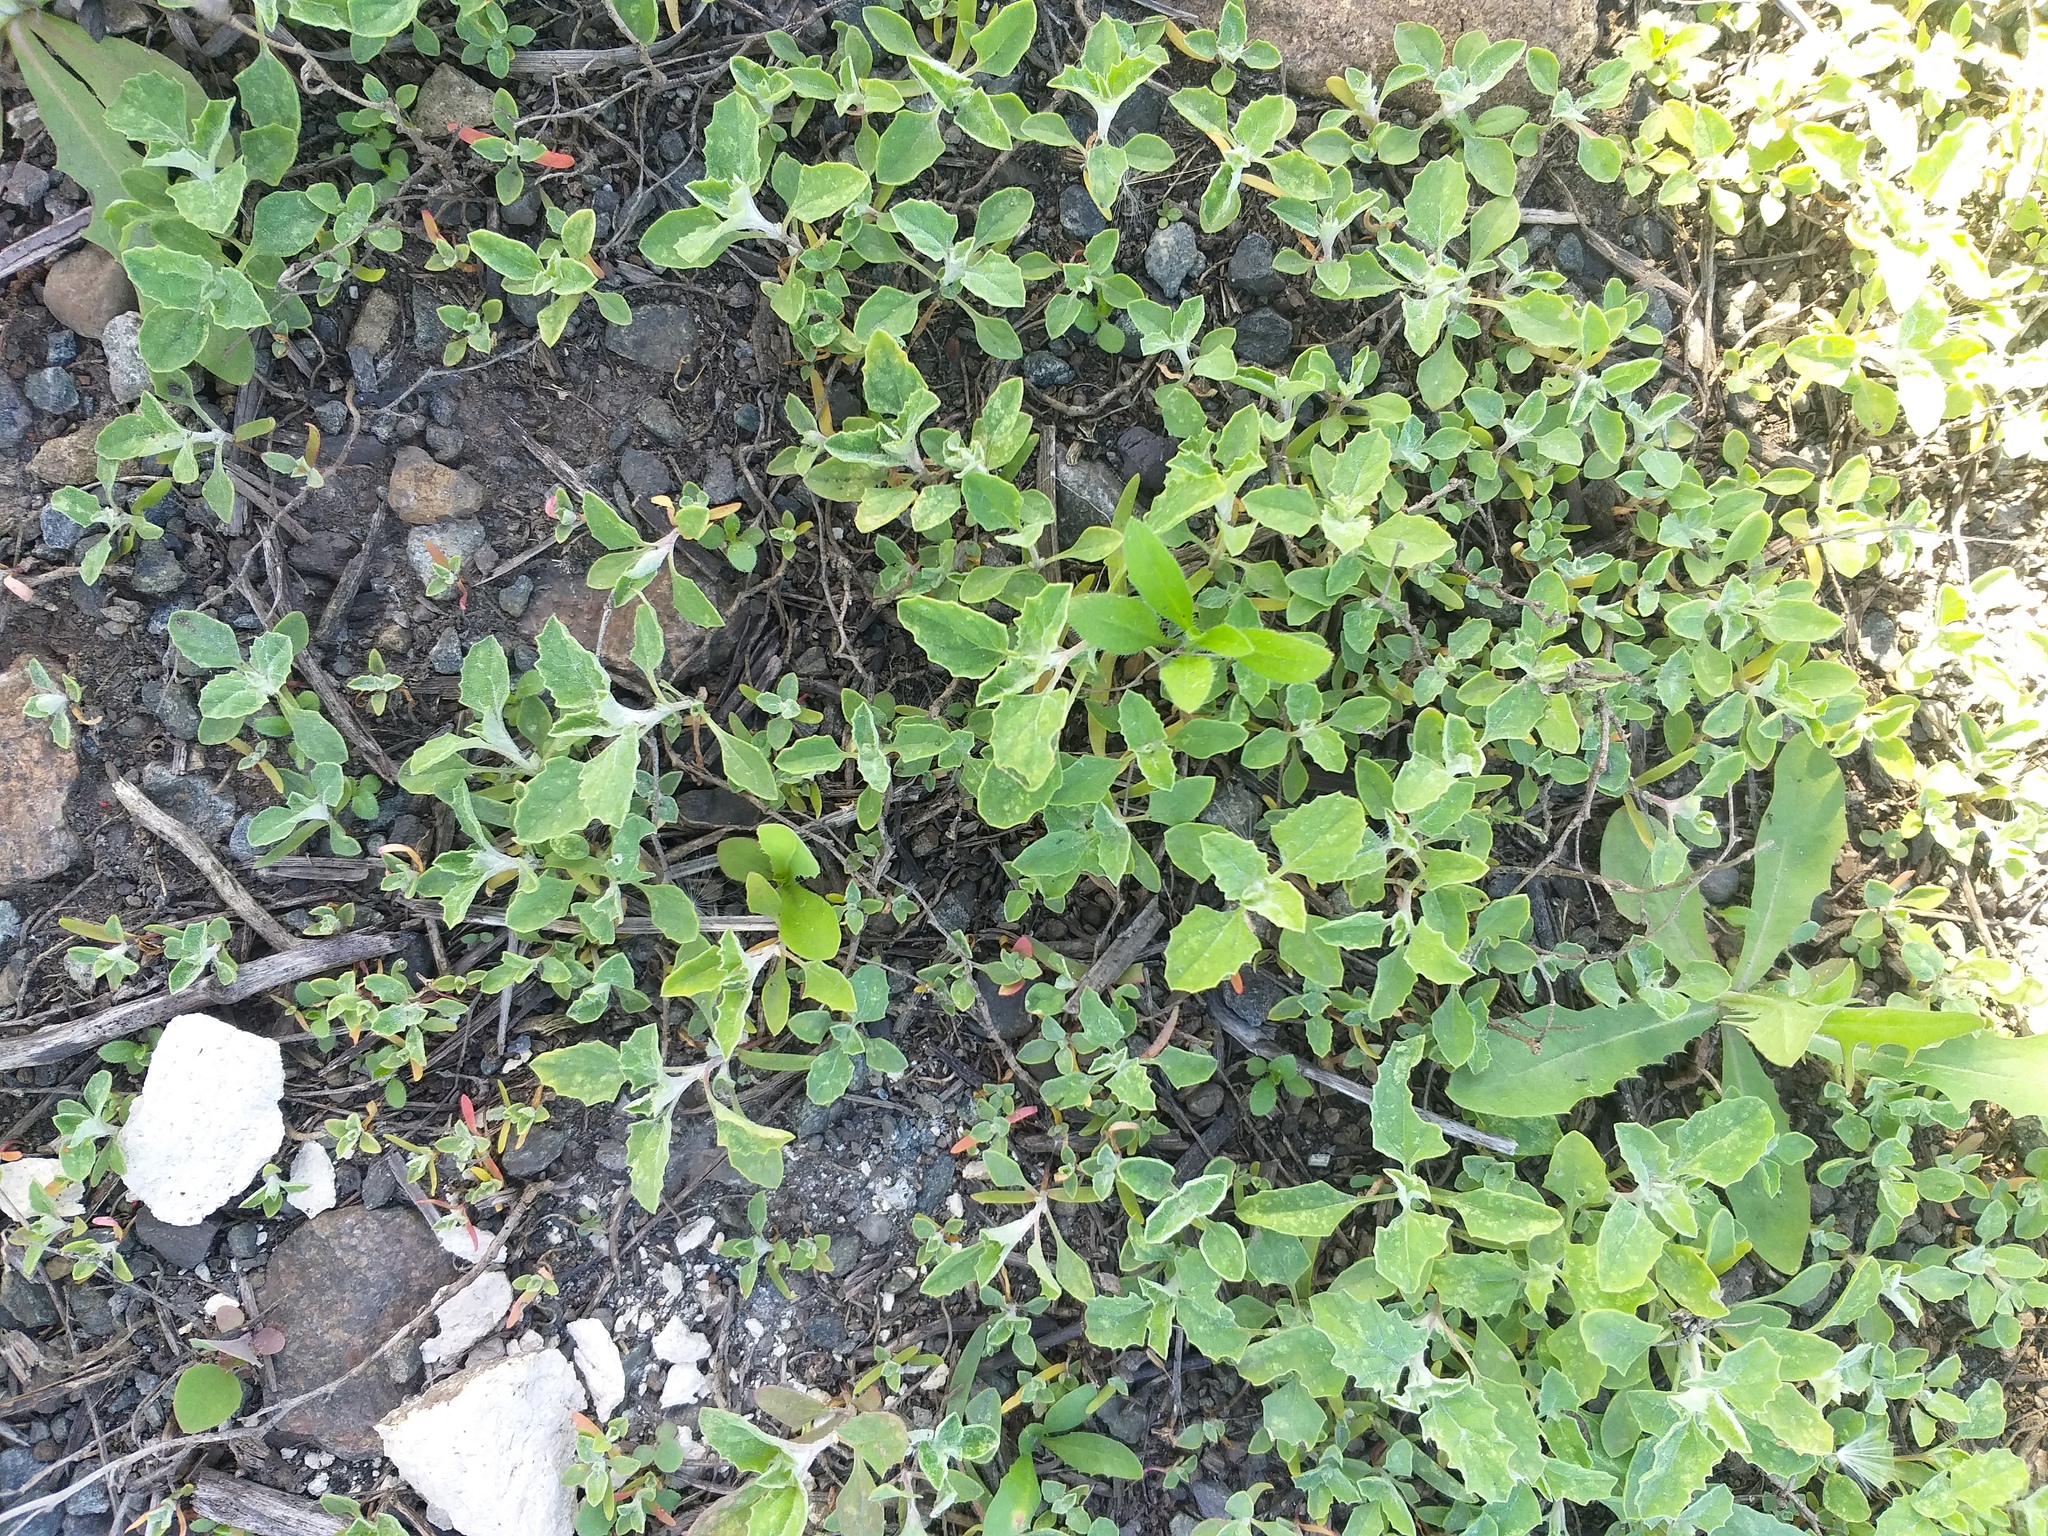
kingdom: Plantae
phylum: Tracheophyta
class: Magnoliopsida
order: Caryophyllales
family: Amaranthaceae
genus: Atriplex
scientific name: Atriplex tatarica
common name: Tatarian orache
